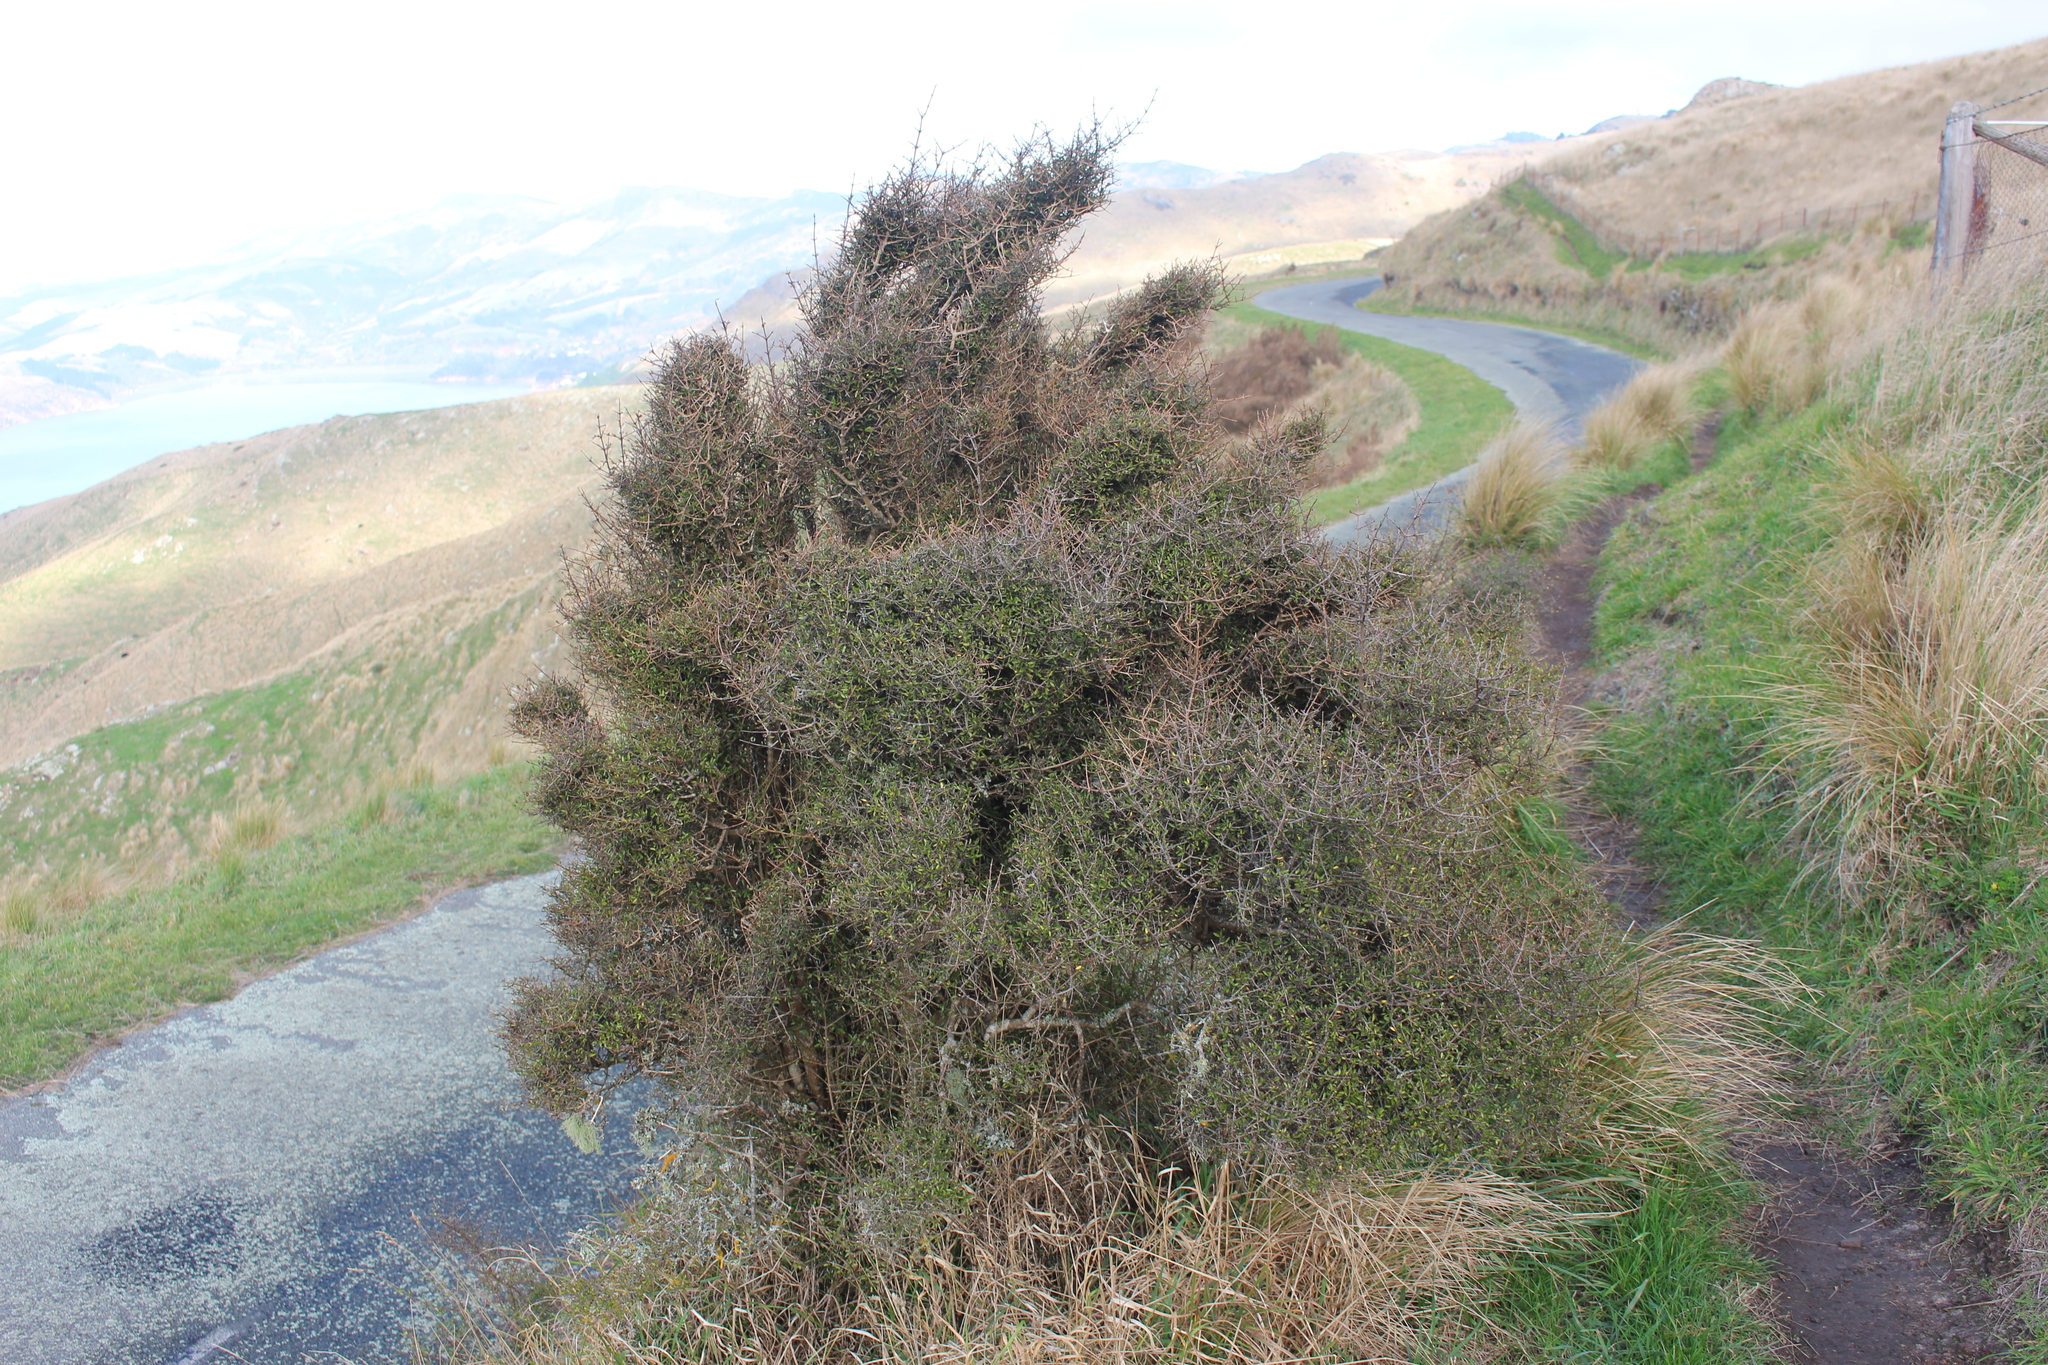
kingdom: Plantae
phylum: Tracheophyta
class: Magnoliopsida
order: Gentianales
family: Rubiaceae
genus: Coprosma
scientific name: Coprosma propinqua
